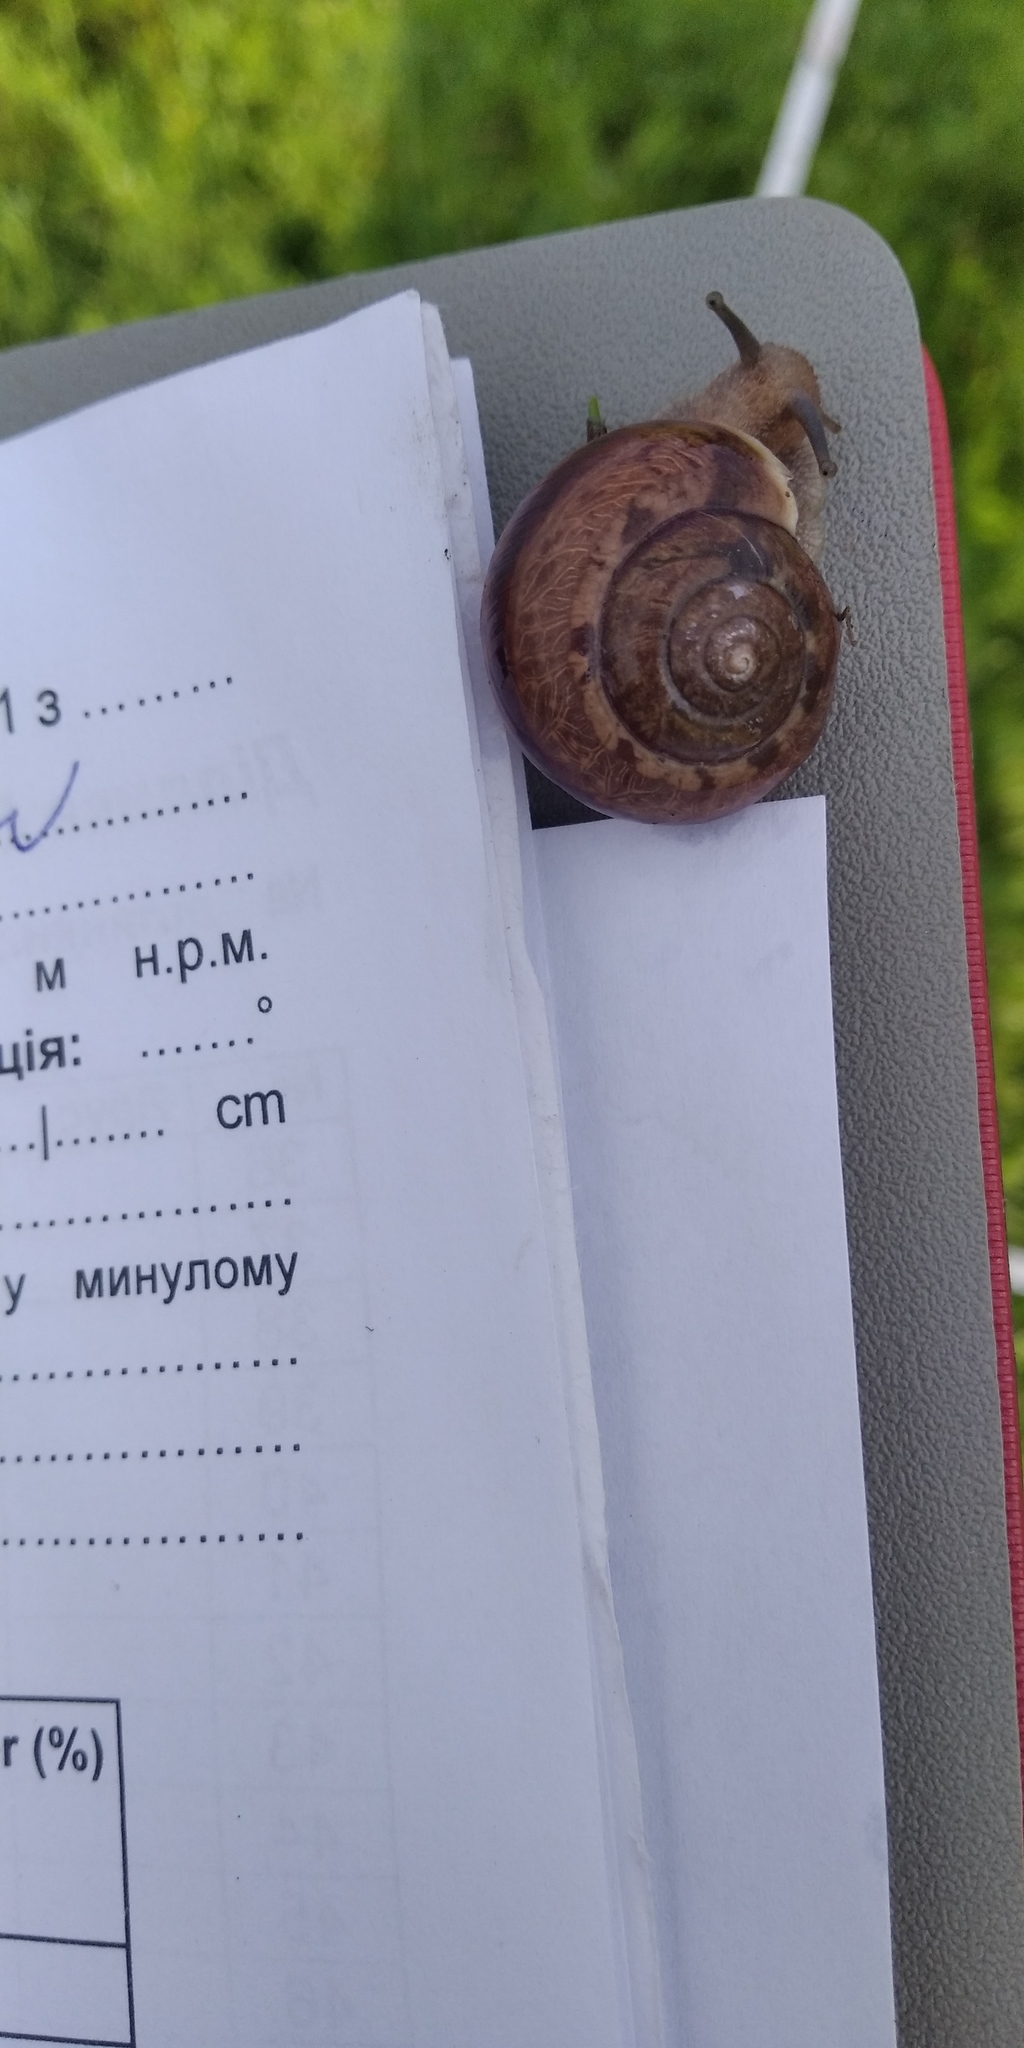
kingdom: Animalia
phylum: Mollusca
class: Gastropoda
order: Stylommatophora
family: Camaenidae
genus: Fruticicola
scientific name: Fruticicola fruticum
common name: Bush snail
